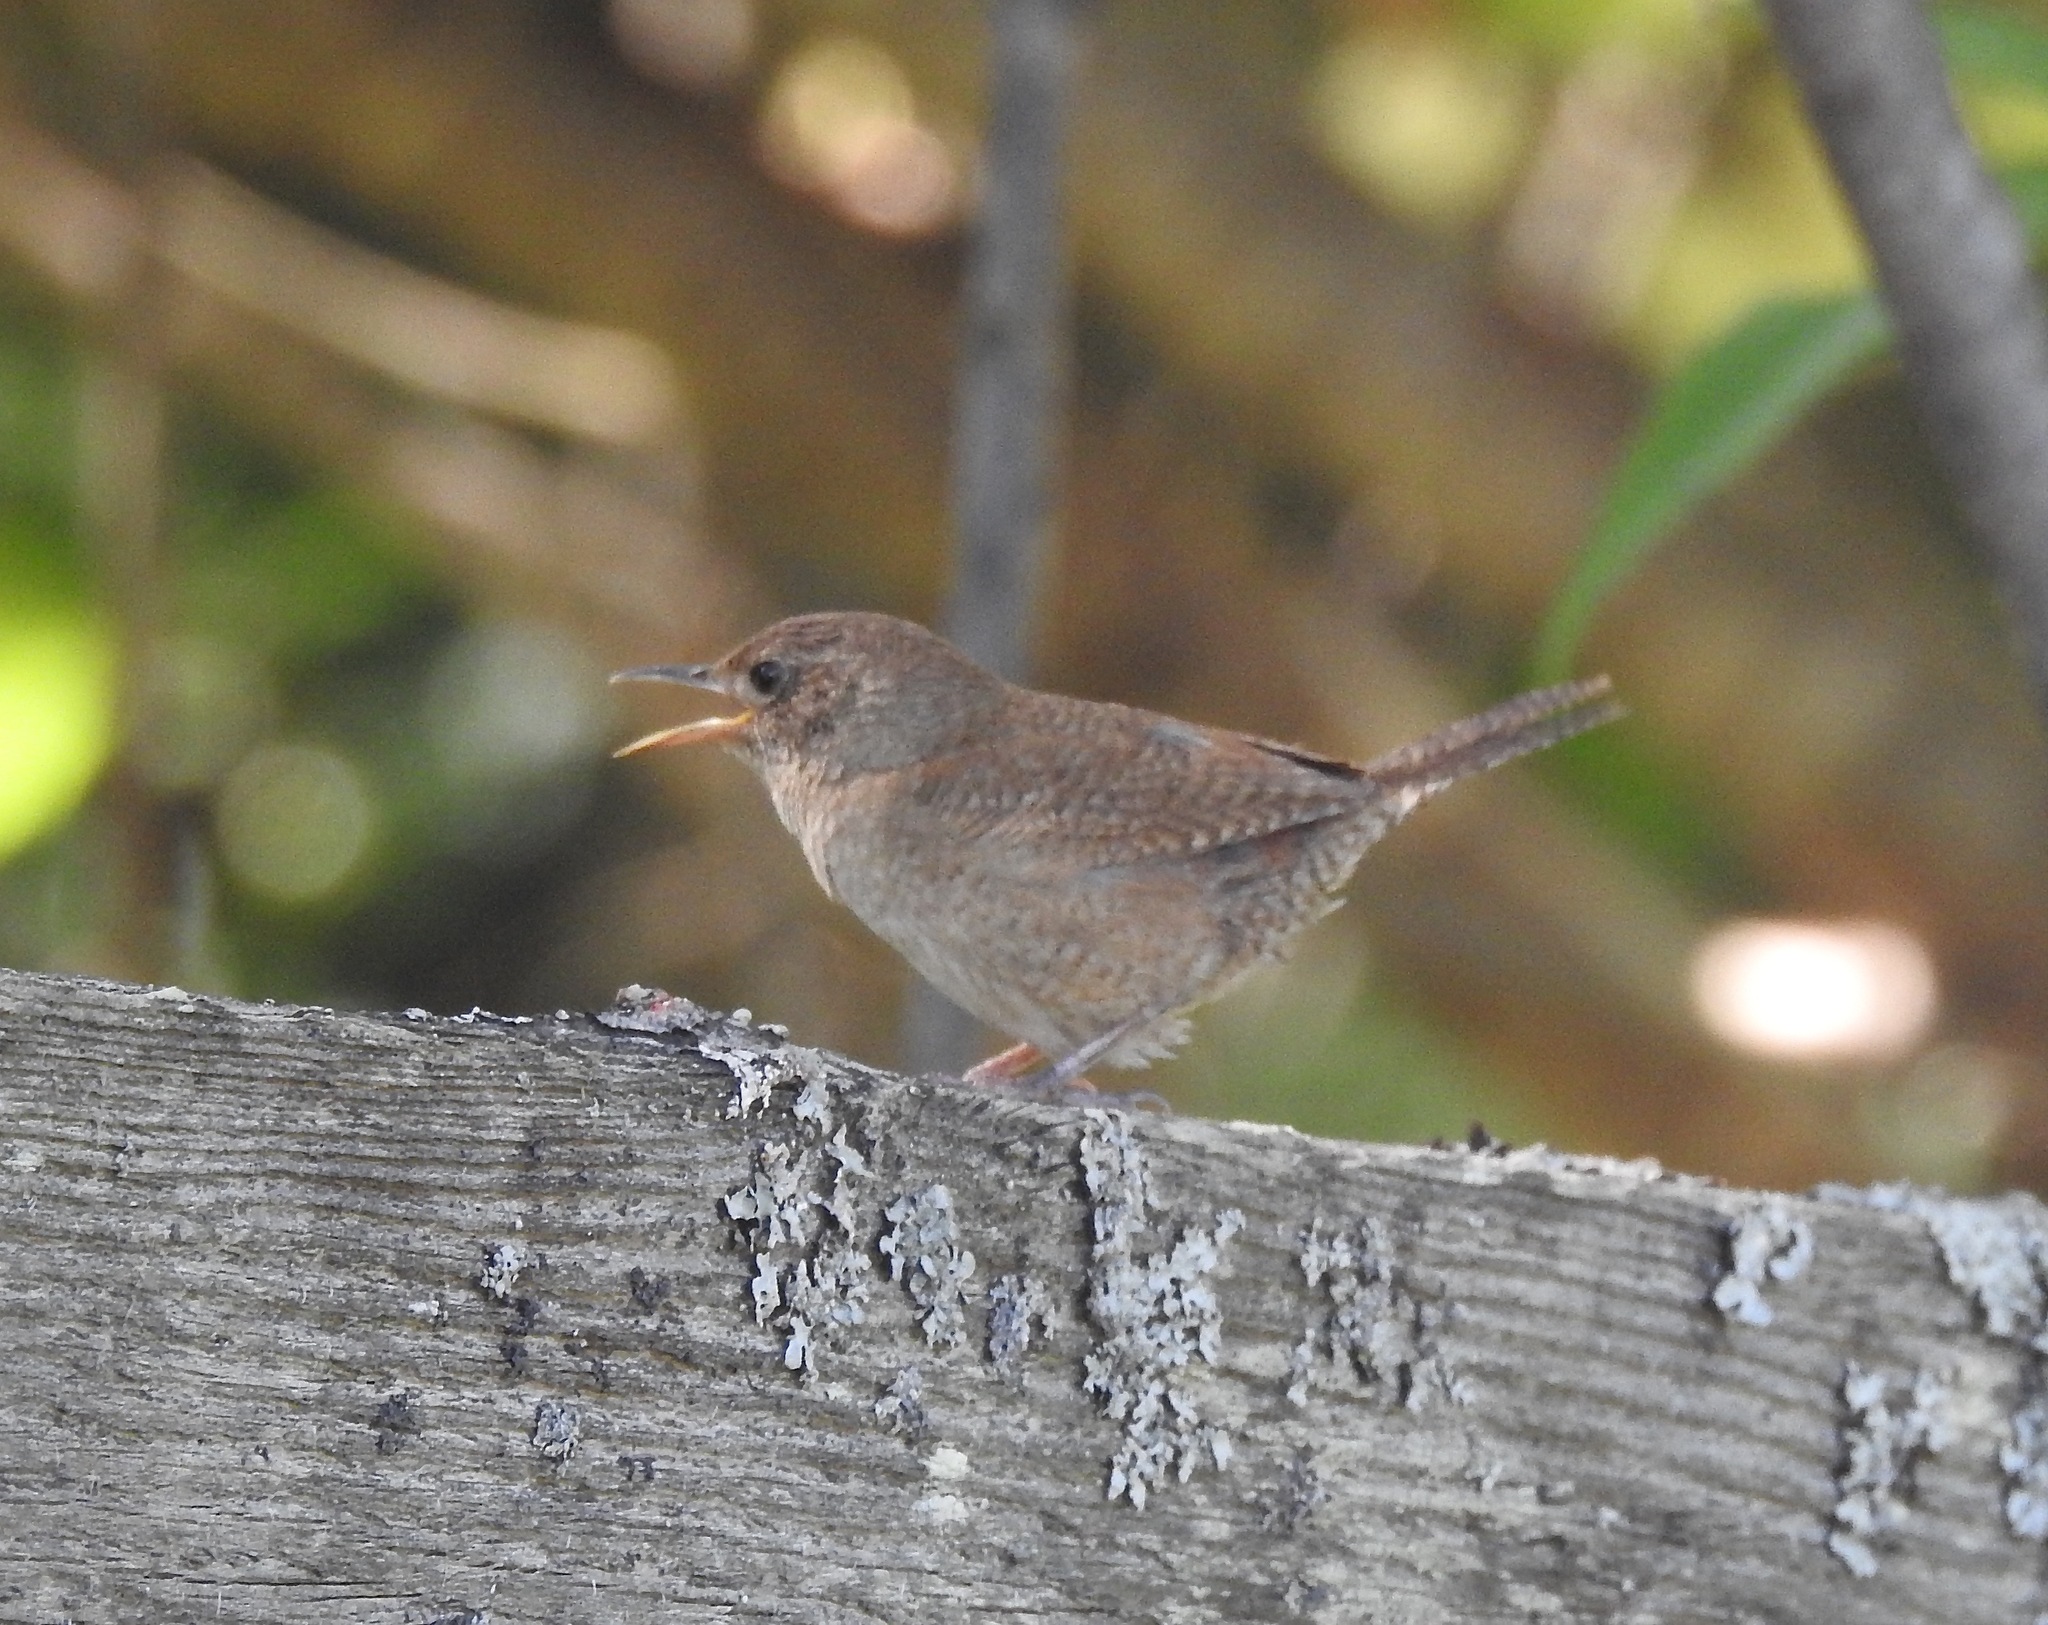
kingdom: Animalia
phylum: Chordata
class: Aves
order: Passeriformes
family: Troglodytidae
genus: Troglodytes
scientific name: Troglodytes aedon
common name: House wren
